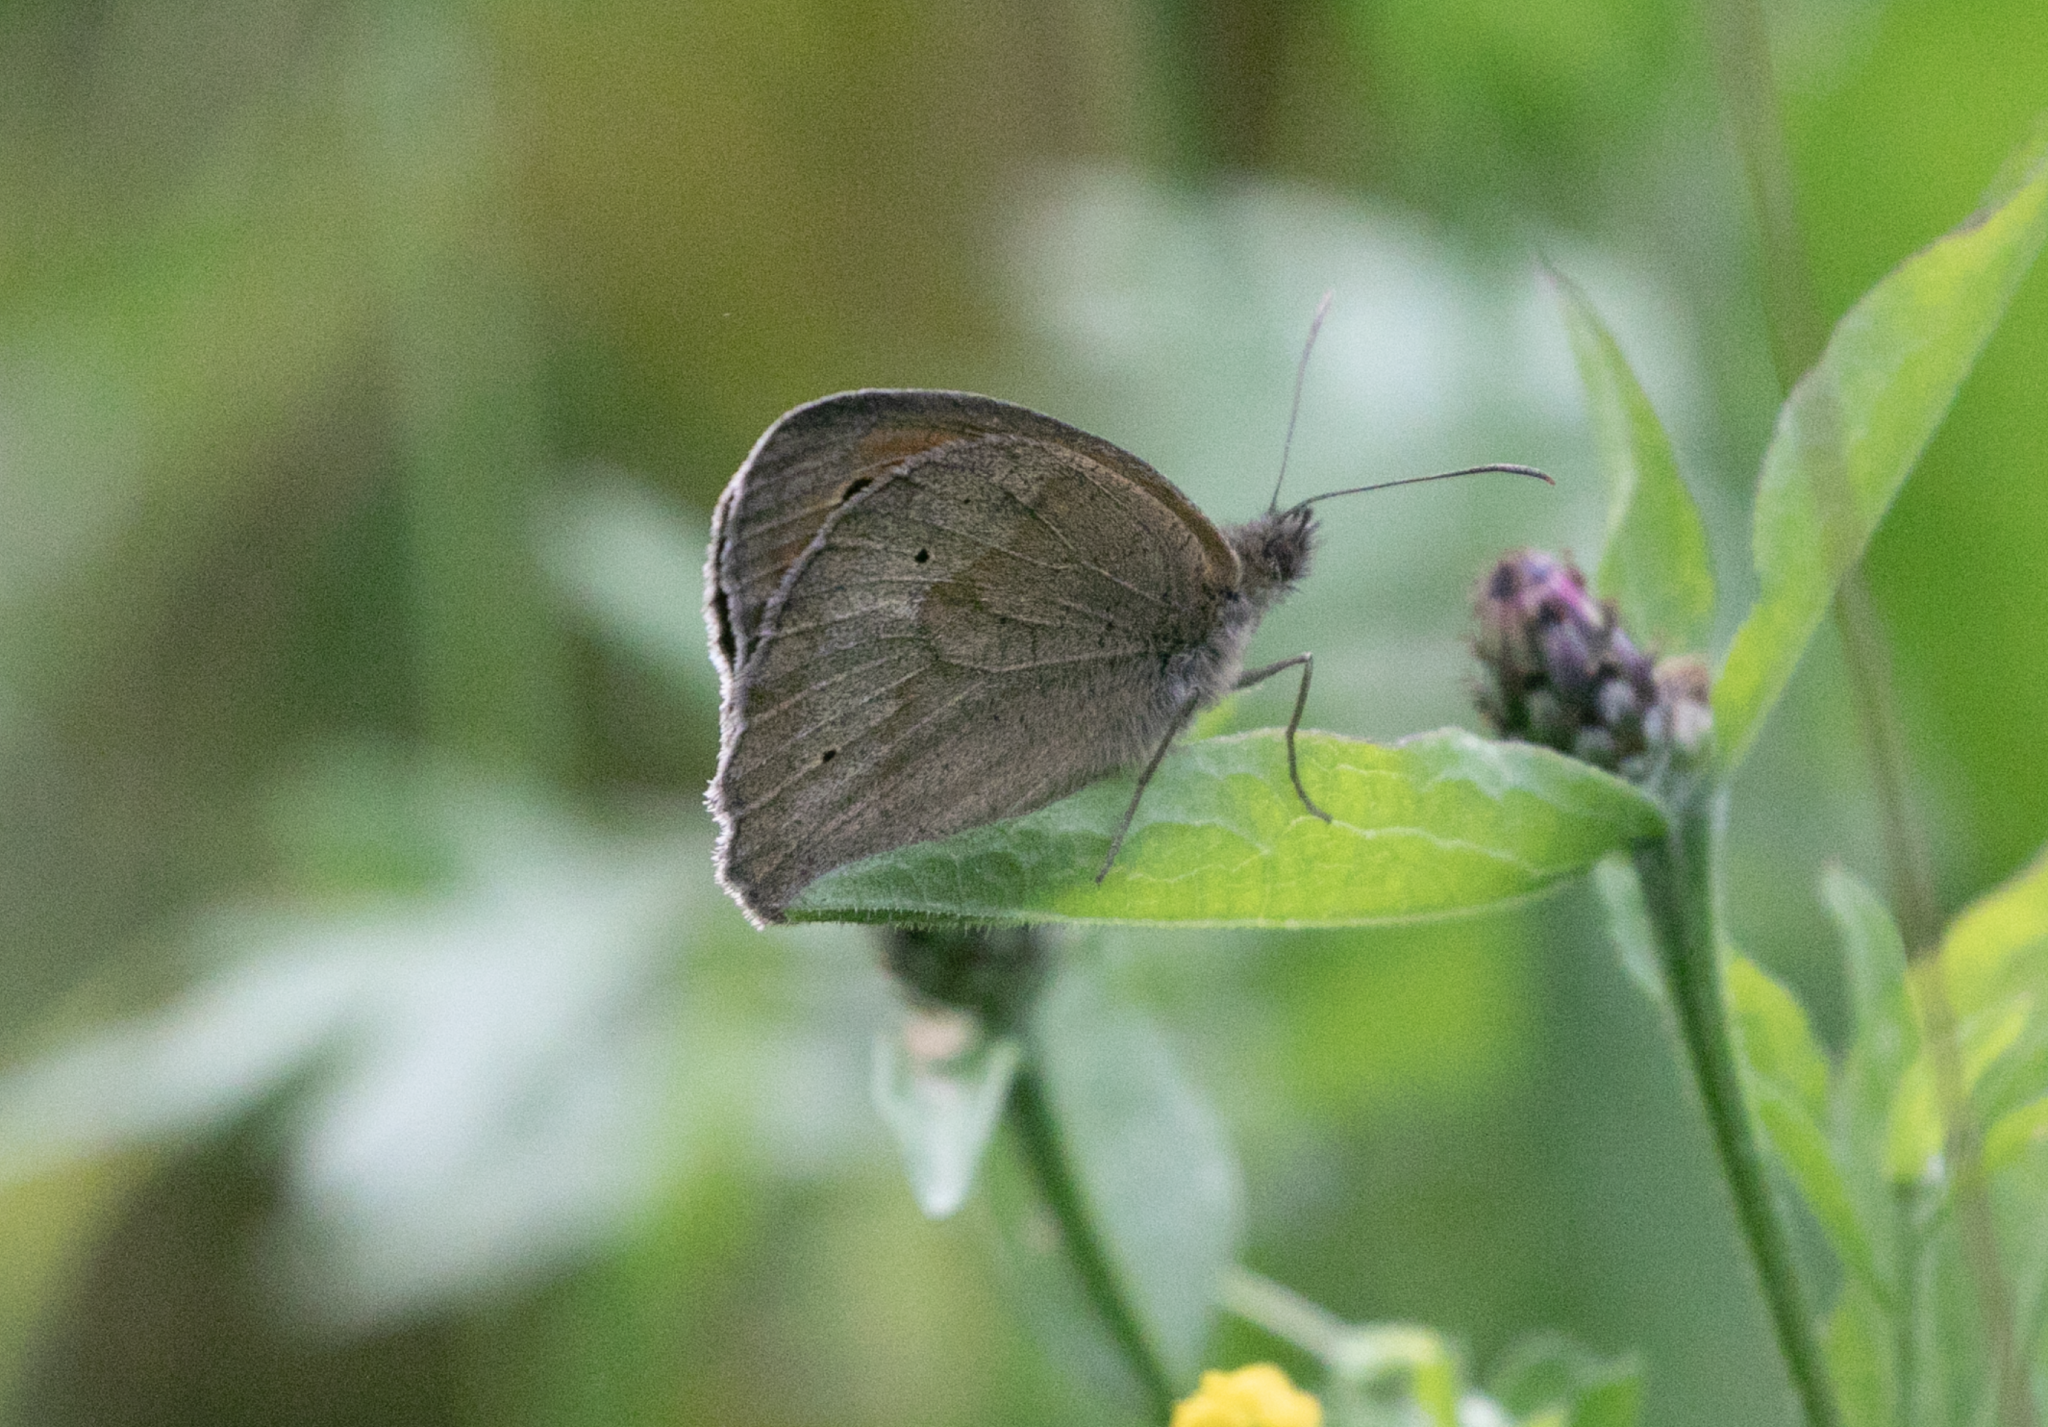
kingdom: Animalia
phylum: Arthropoda
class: Insecta
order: Lepidoptera
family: Nymphalidae
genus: Maniola
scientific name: Maniola jurtina
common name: Meadow brown
